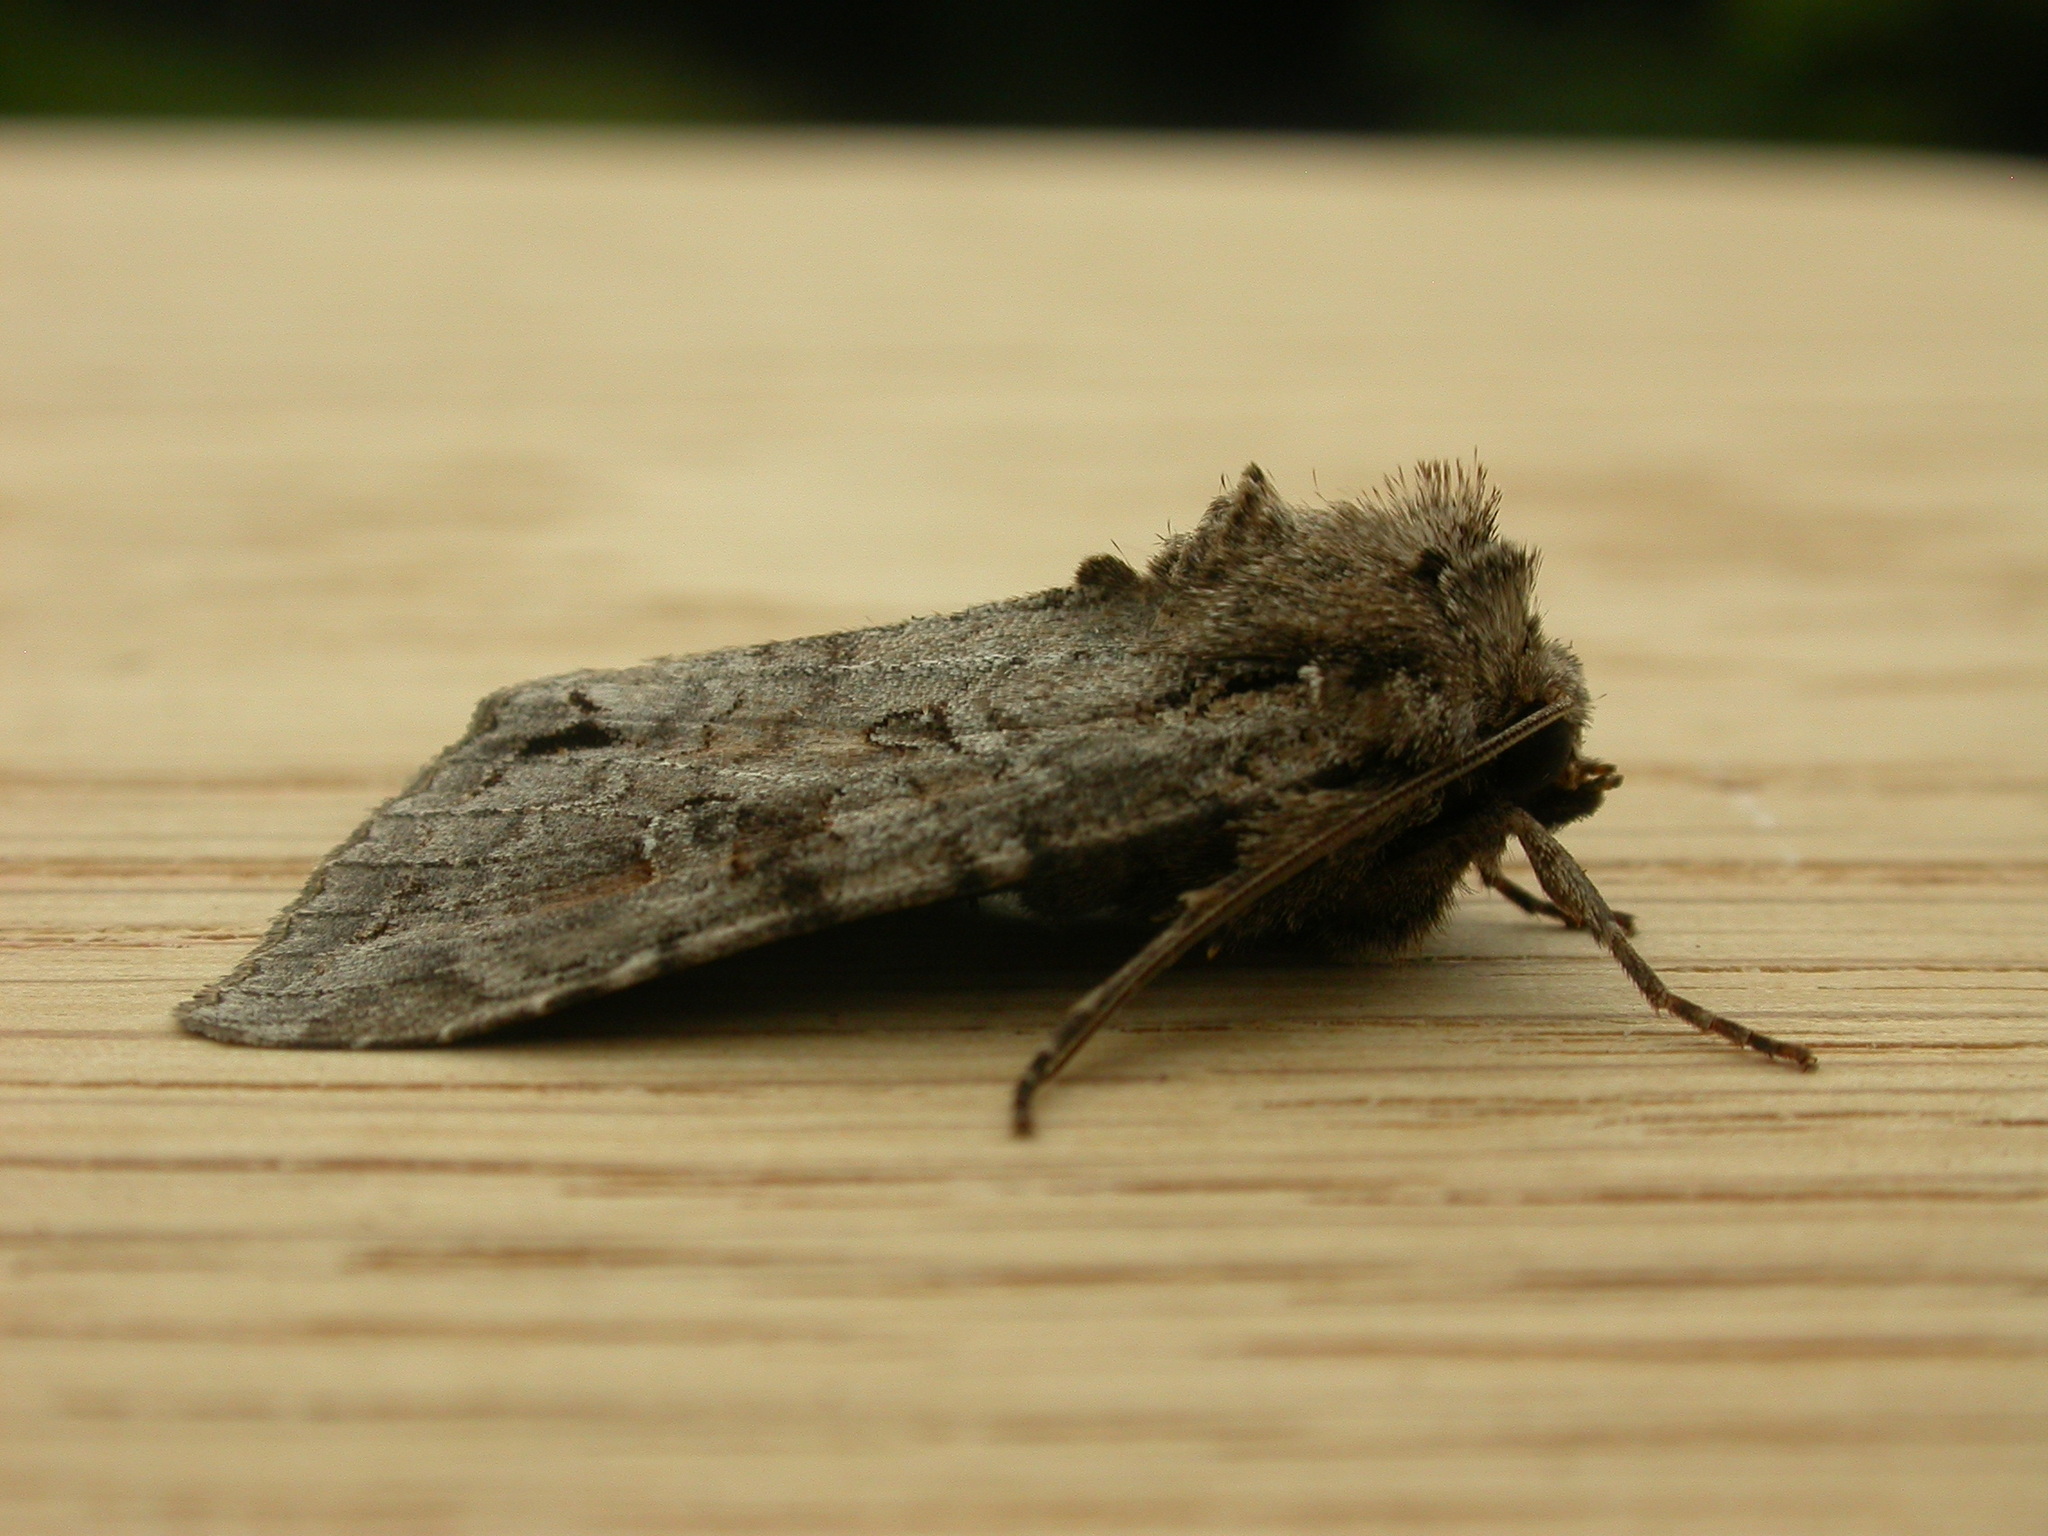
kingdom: Animalia
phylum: Arthropoda
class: Insecta
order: Lepidoptera
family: Noctuidae
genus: Polia
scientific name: Polia bombycina
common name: Pale shining brown
